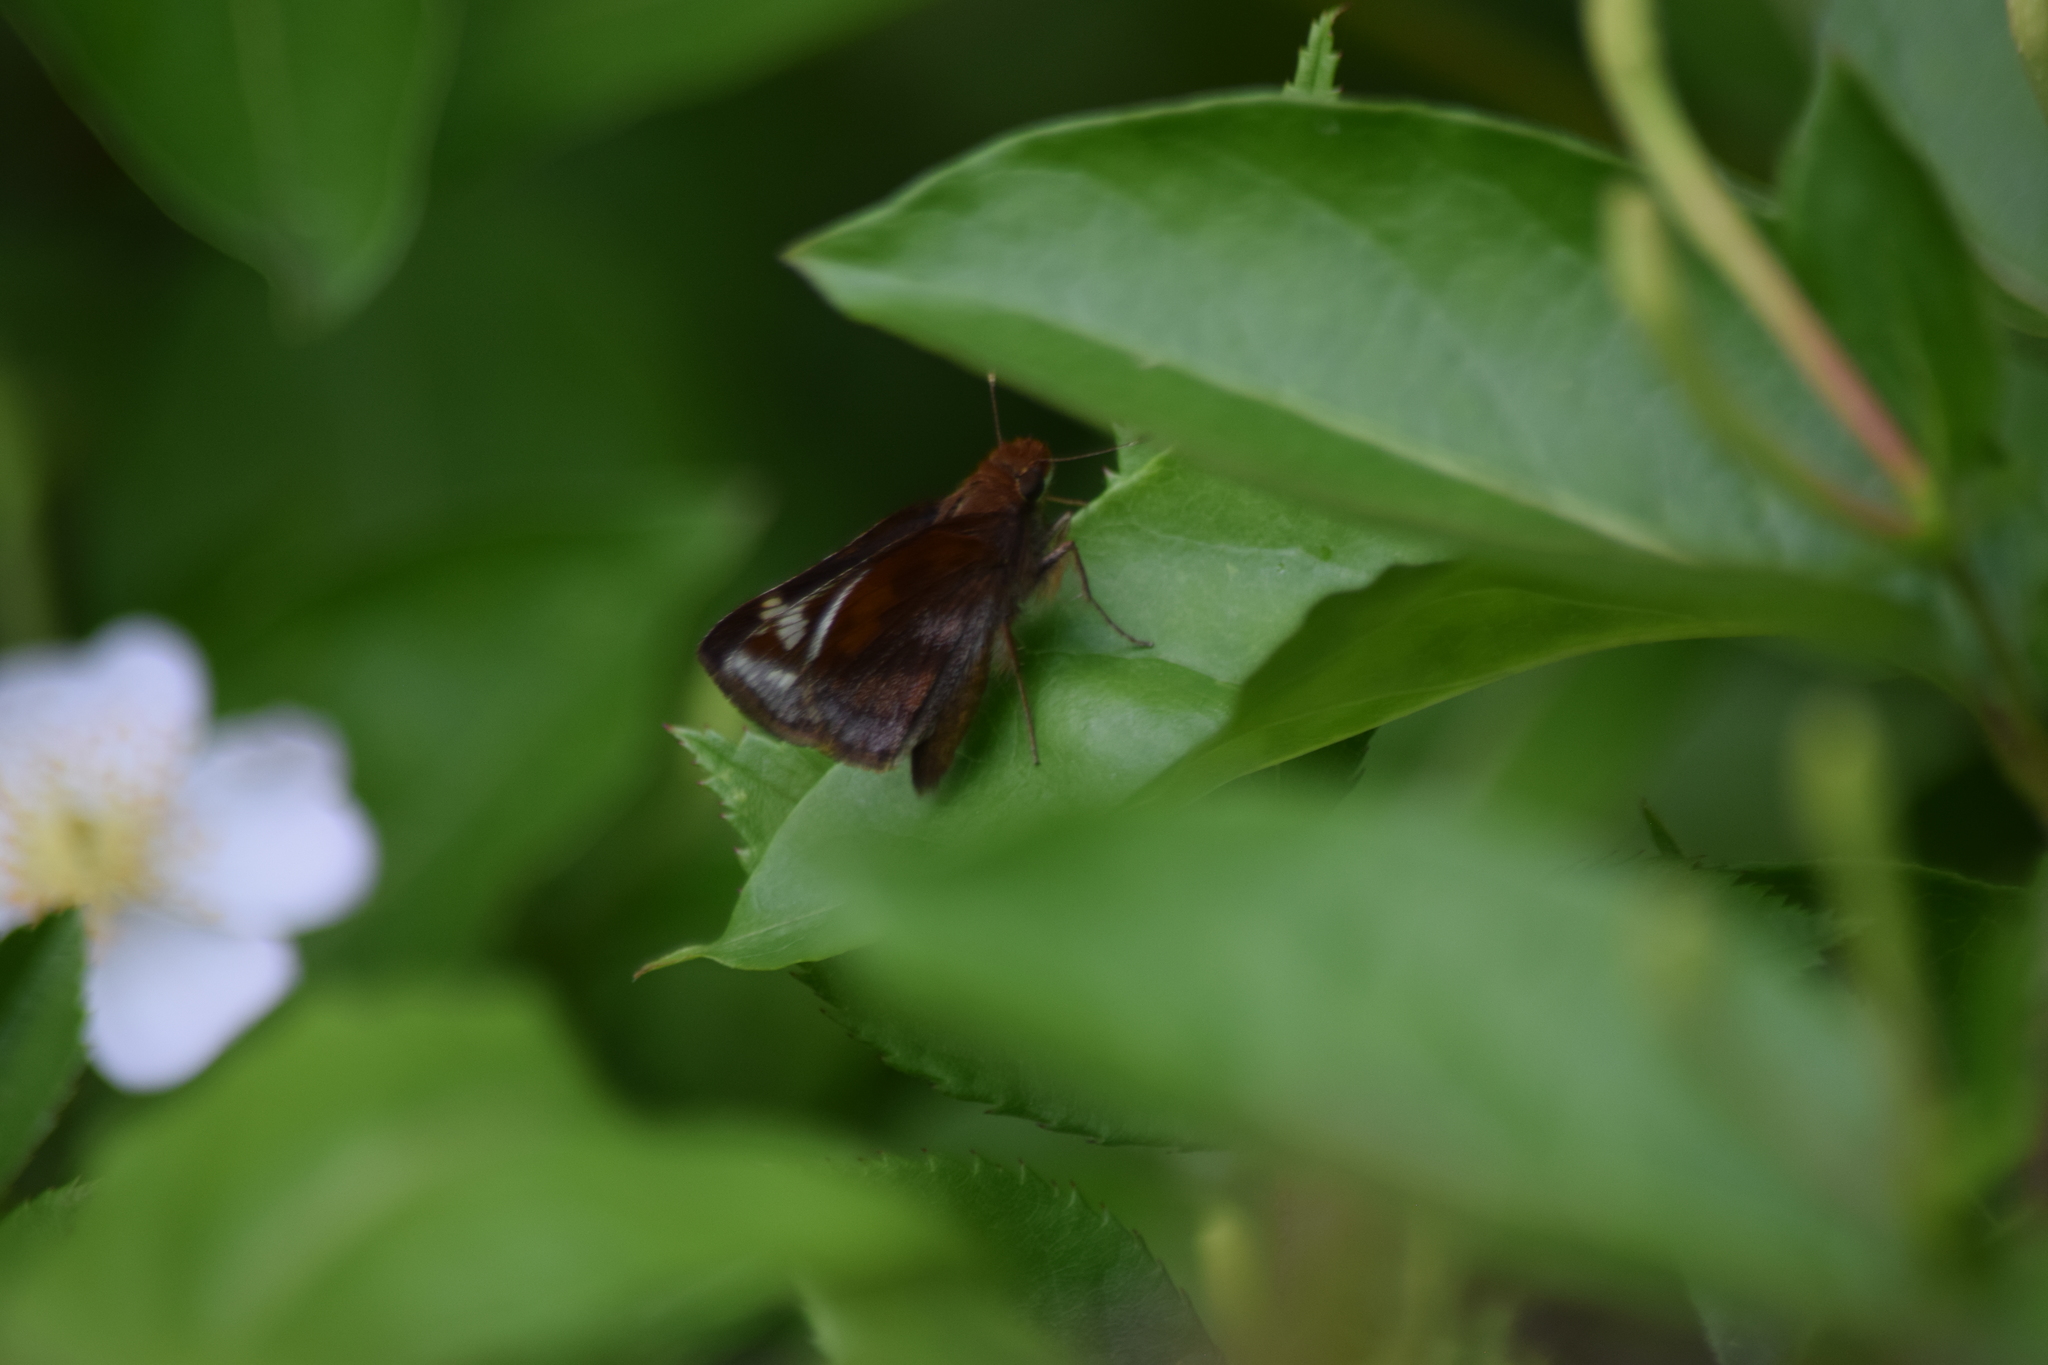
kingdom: Animalia
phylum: Arthropoda
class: Insecta
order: Lepidoptera
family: Hesperiidae
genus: Lon
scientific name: Lon zabulon
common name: Zabulon skipper
